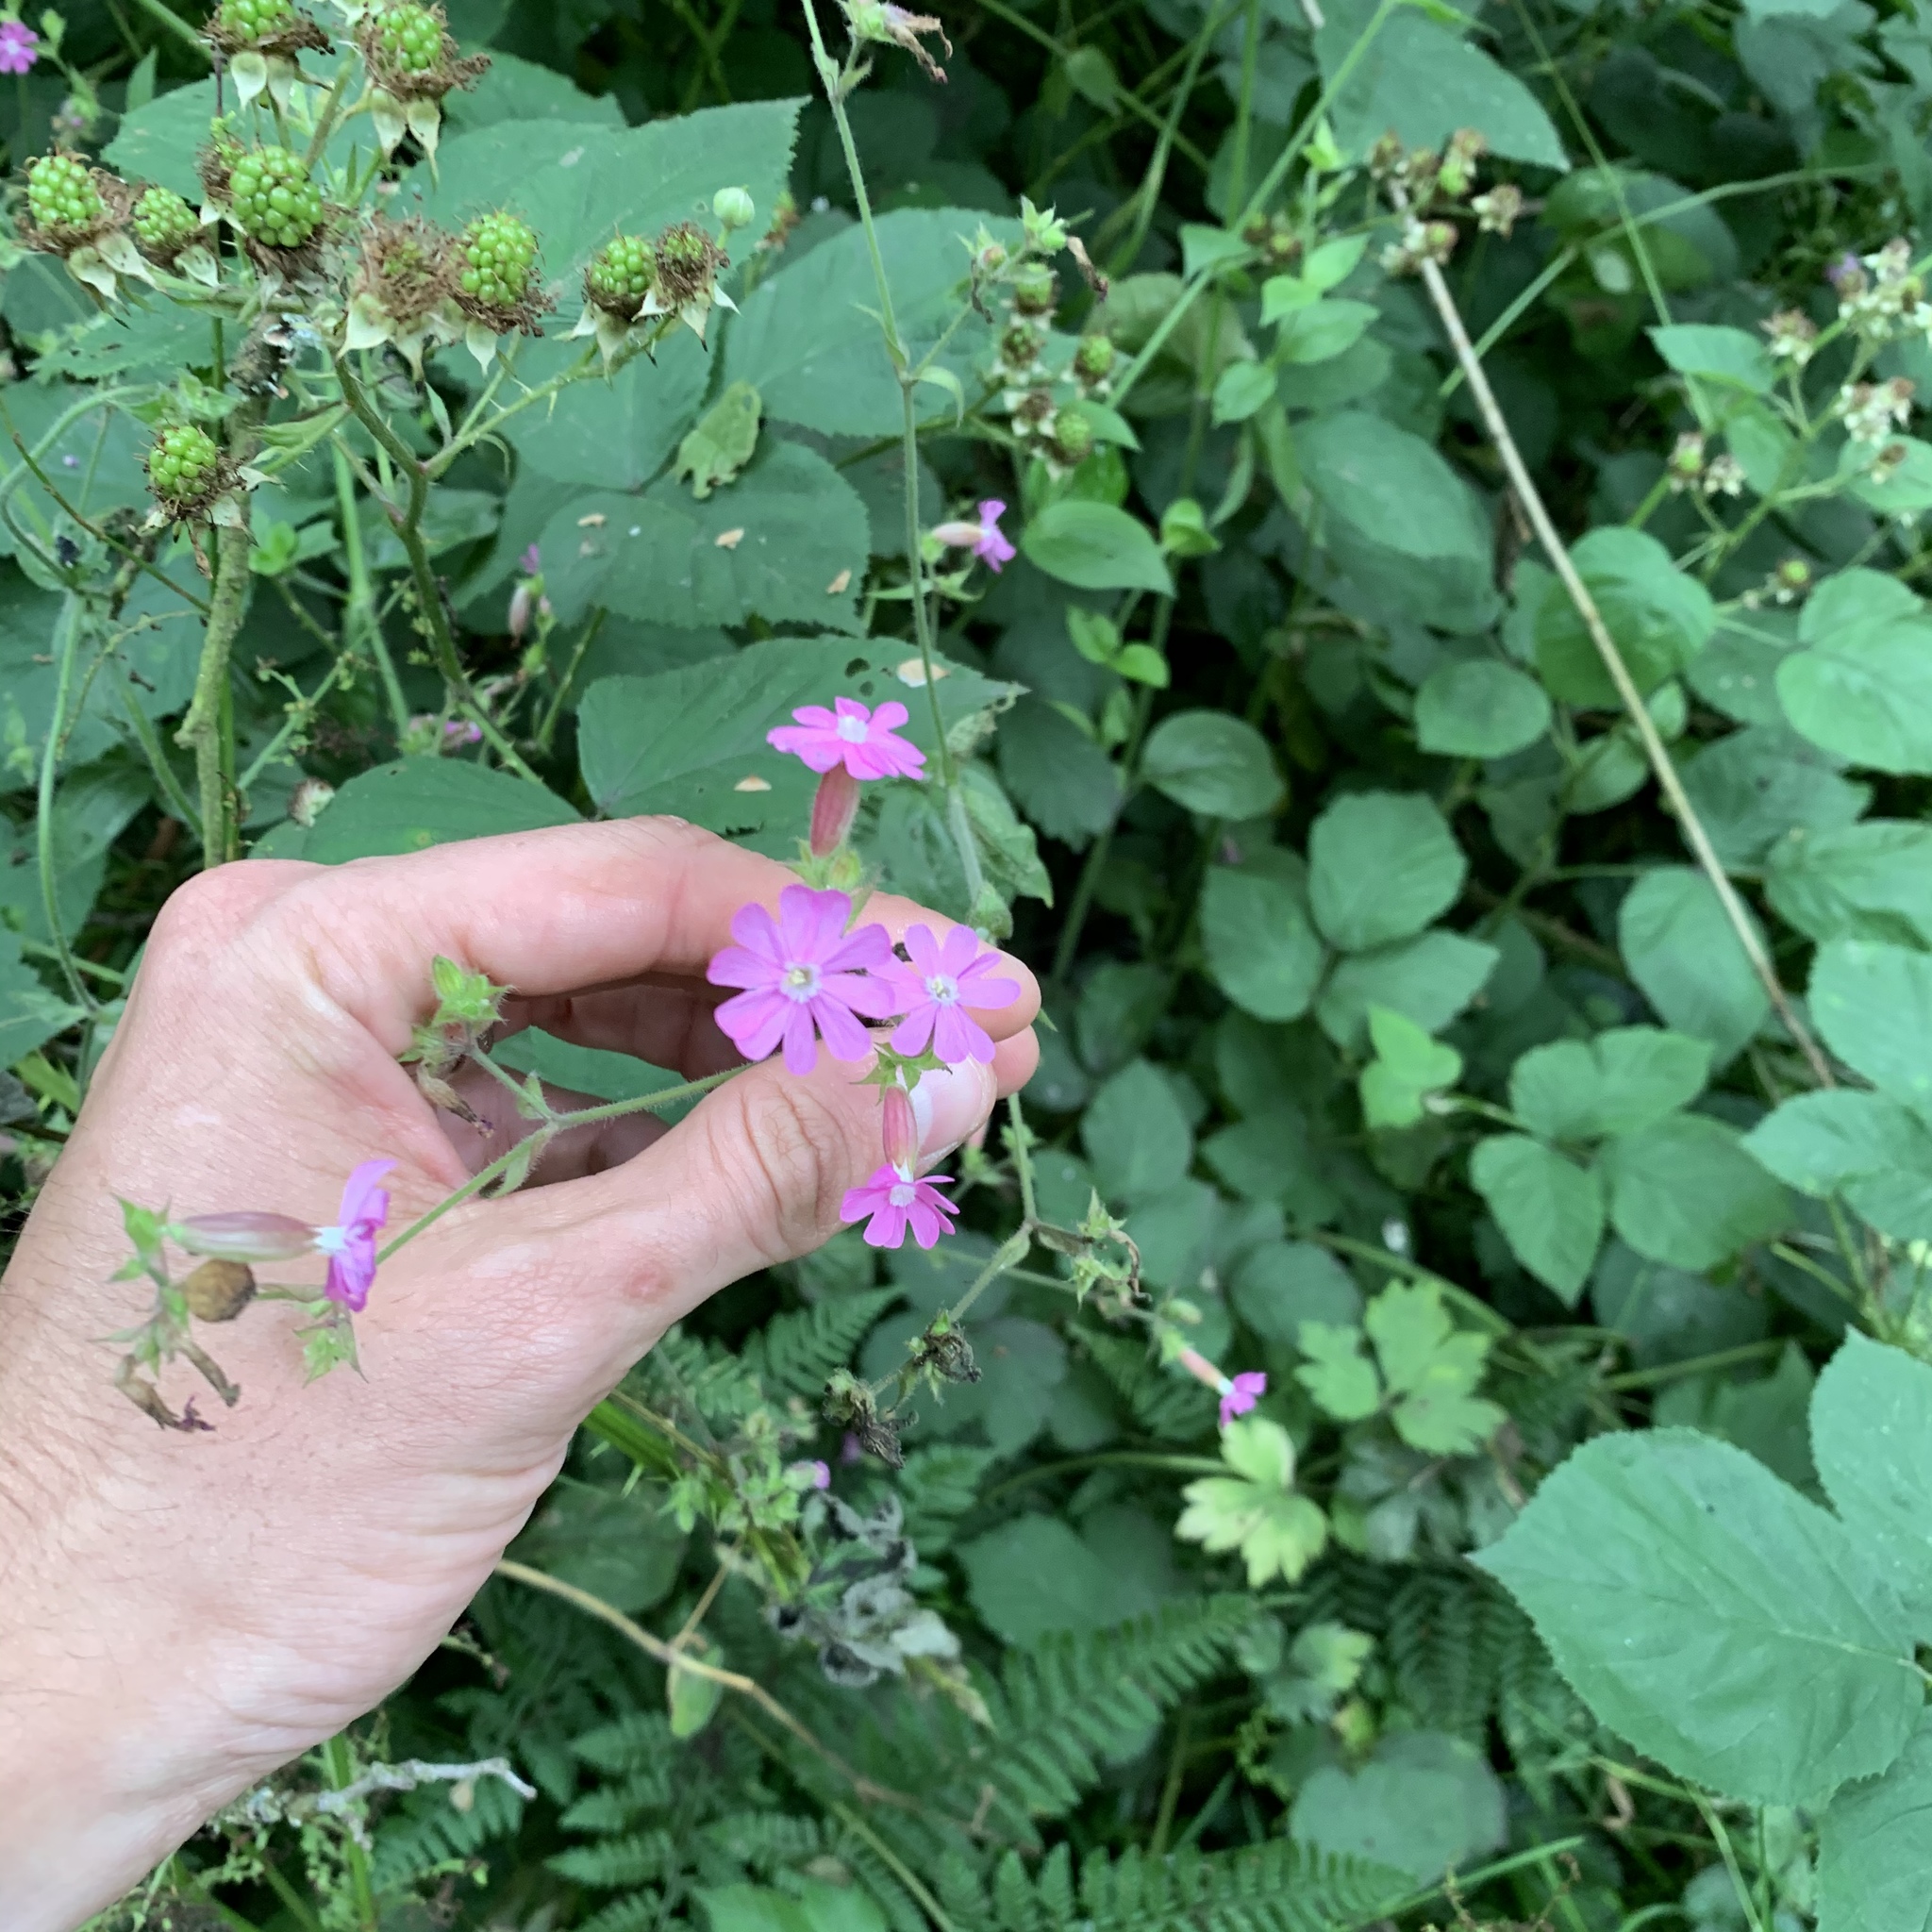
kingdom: Plantae
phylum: Tracheophyta
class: Magnoliopsida
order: Caryophyllales
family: Caryophyllaceae
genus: Silene
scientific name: Silene dioica
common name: Red campion
